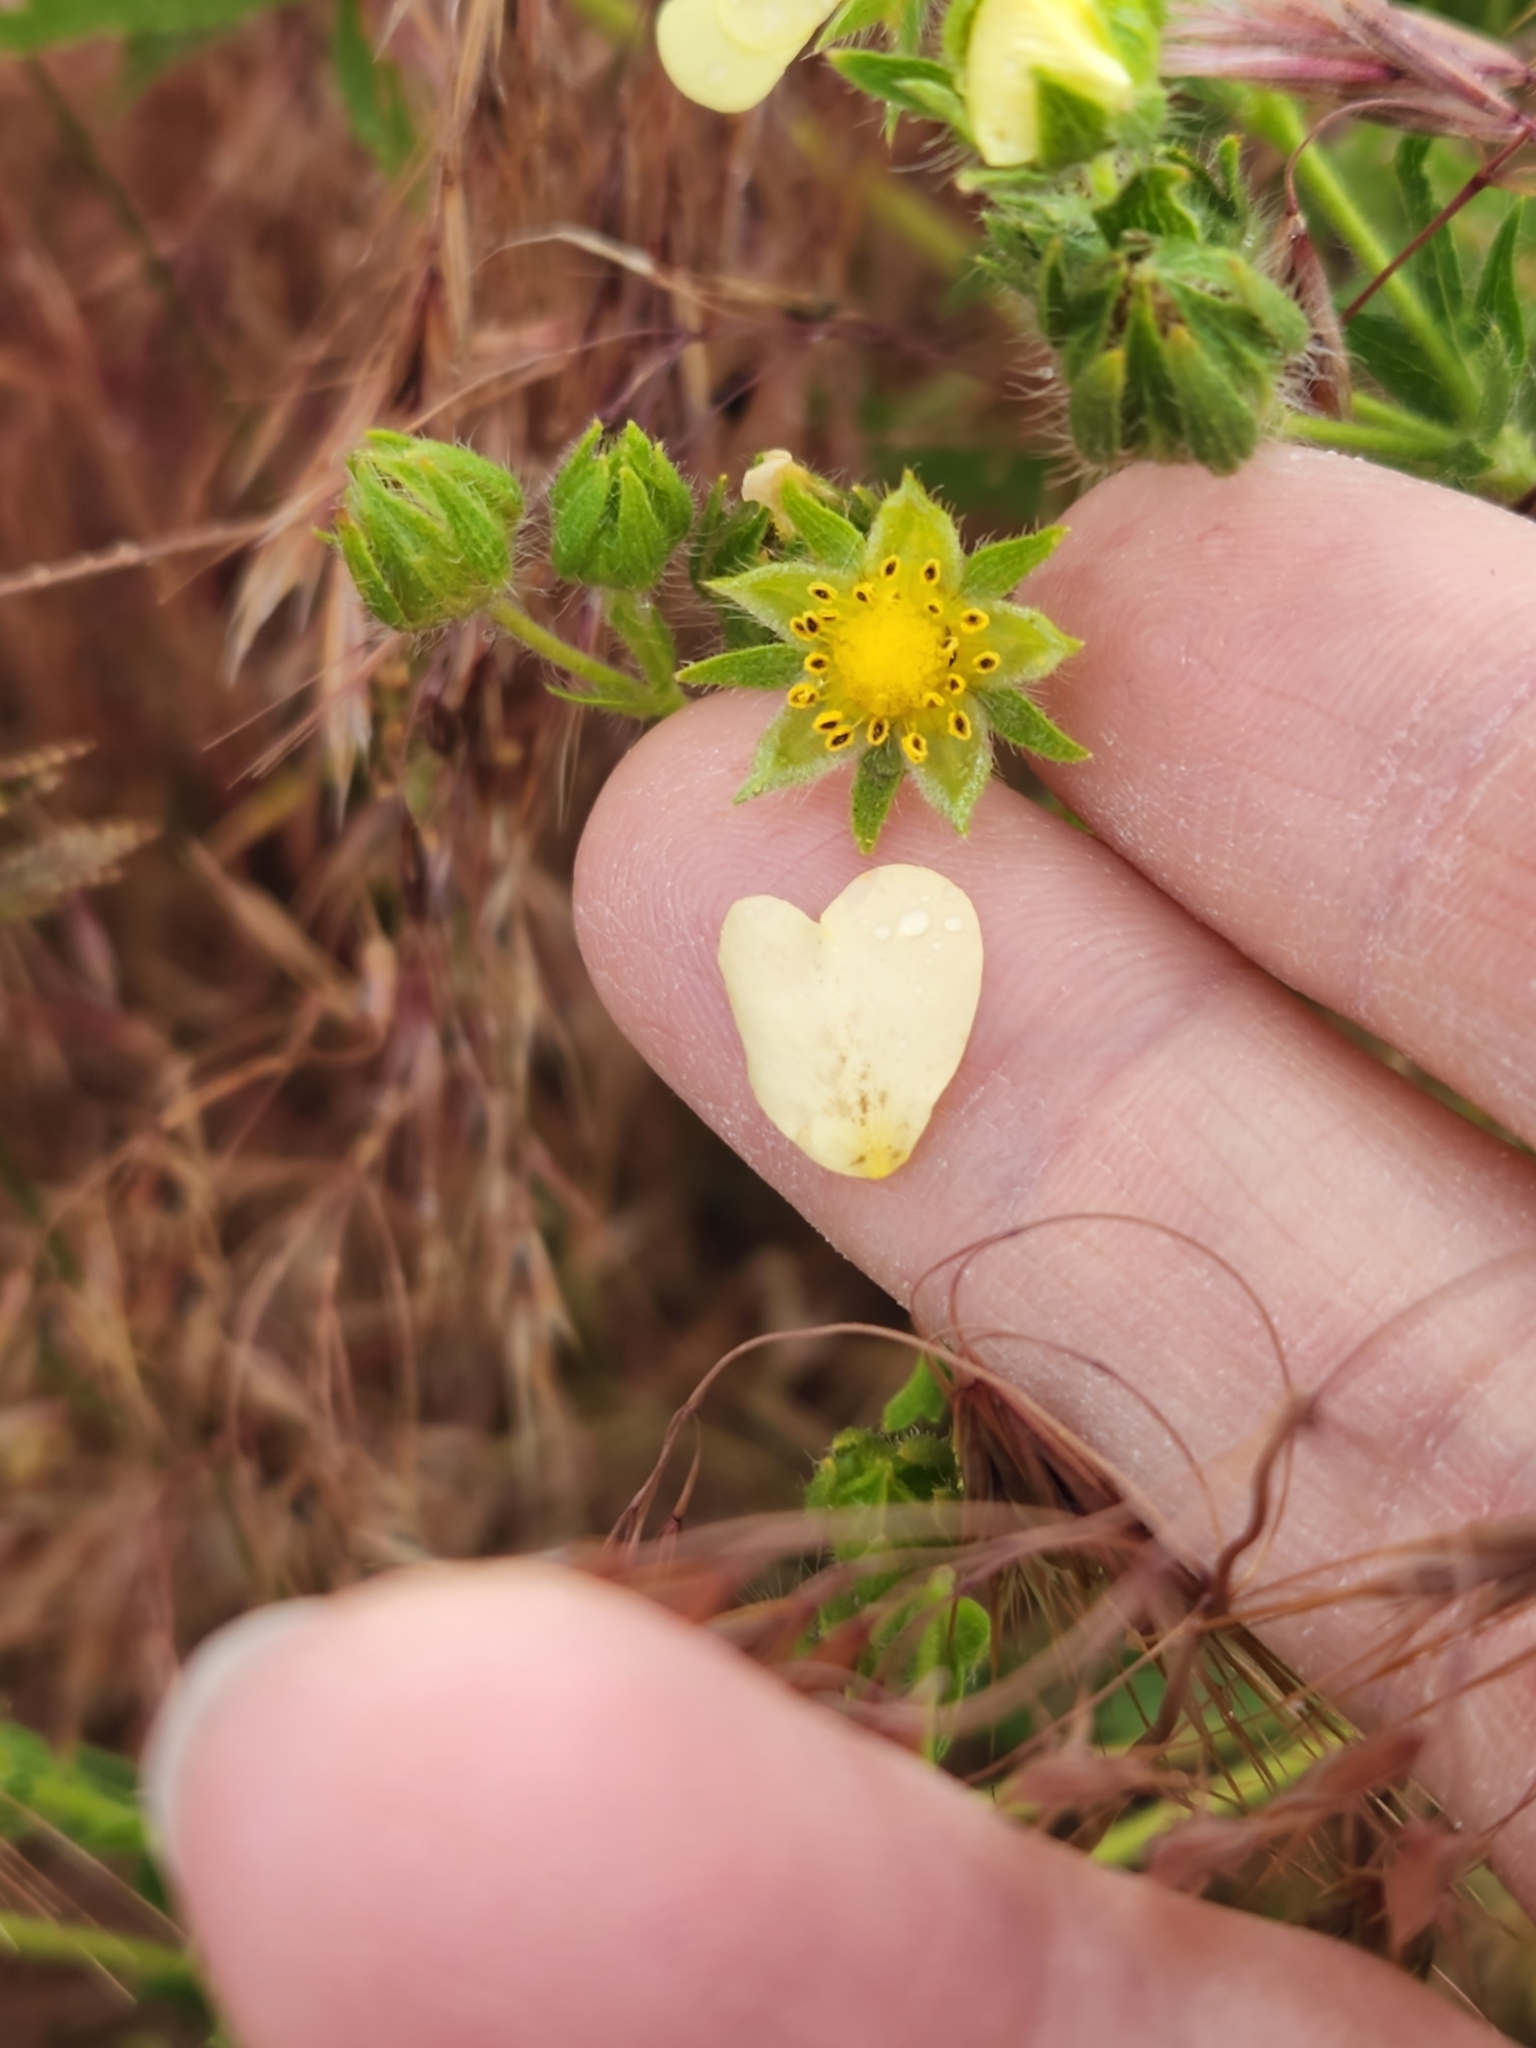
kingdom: Plantae
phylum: Tracheophyta
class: Magnoliopsida
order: Rosales
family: Rosaceae
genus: Potentilla
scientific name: Potentilla recta
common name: Sulphur cinquefoil
